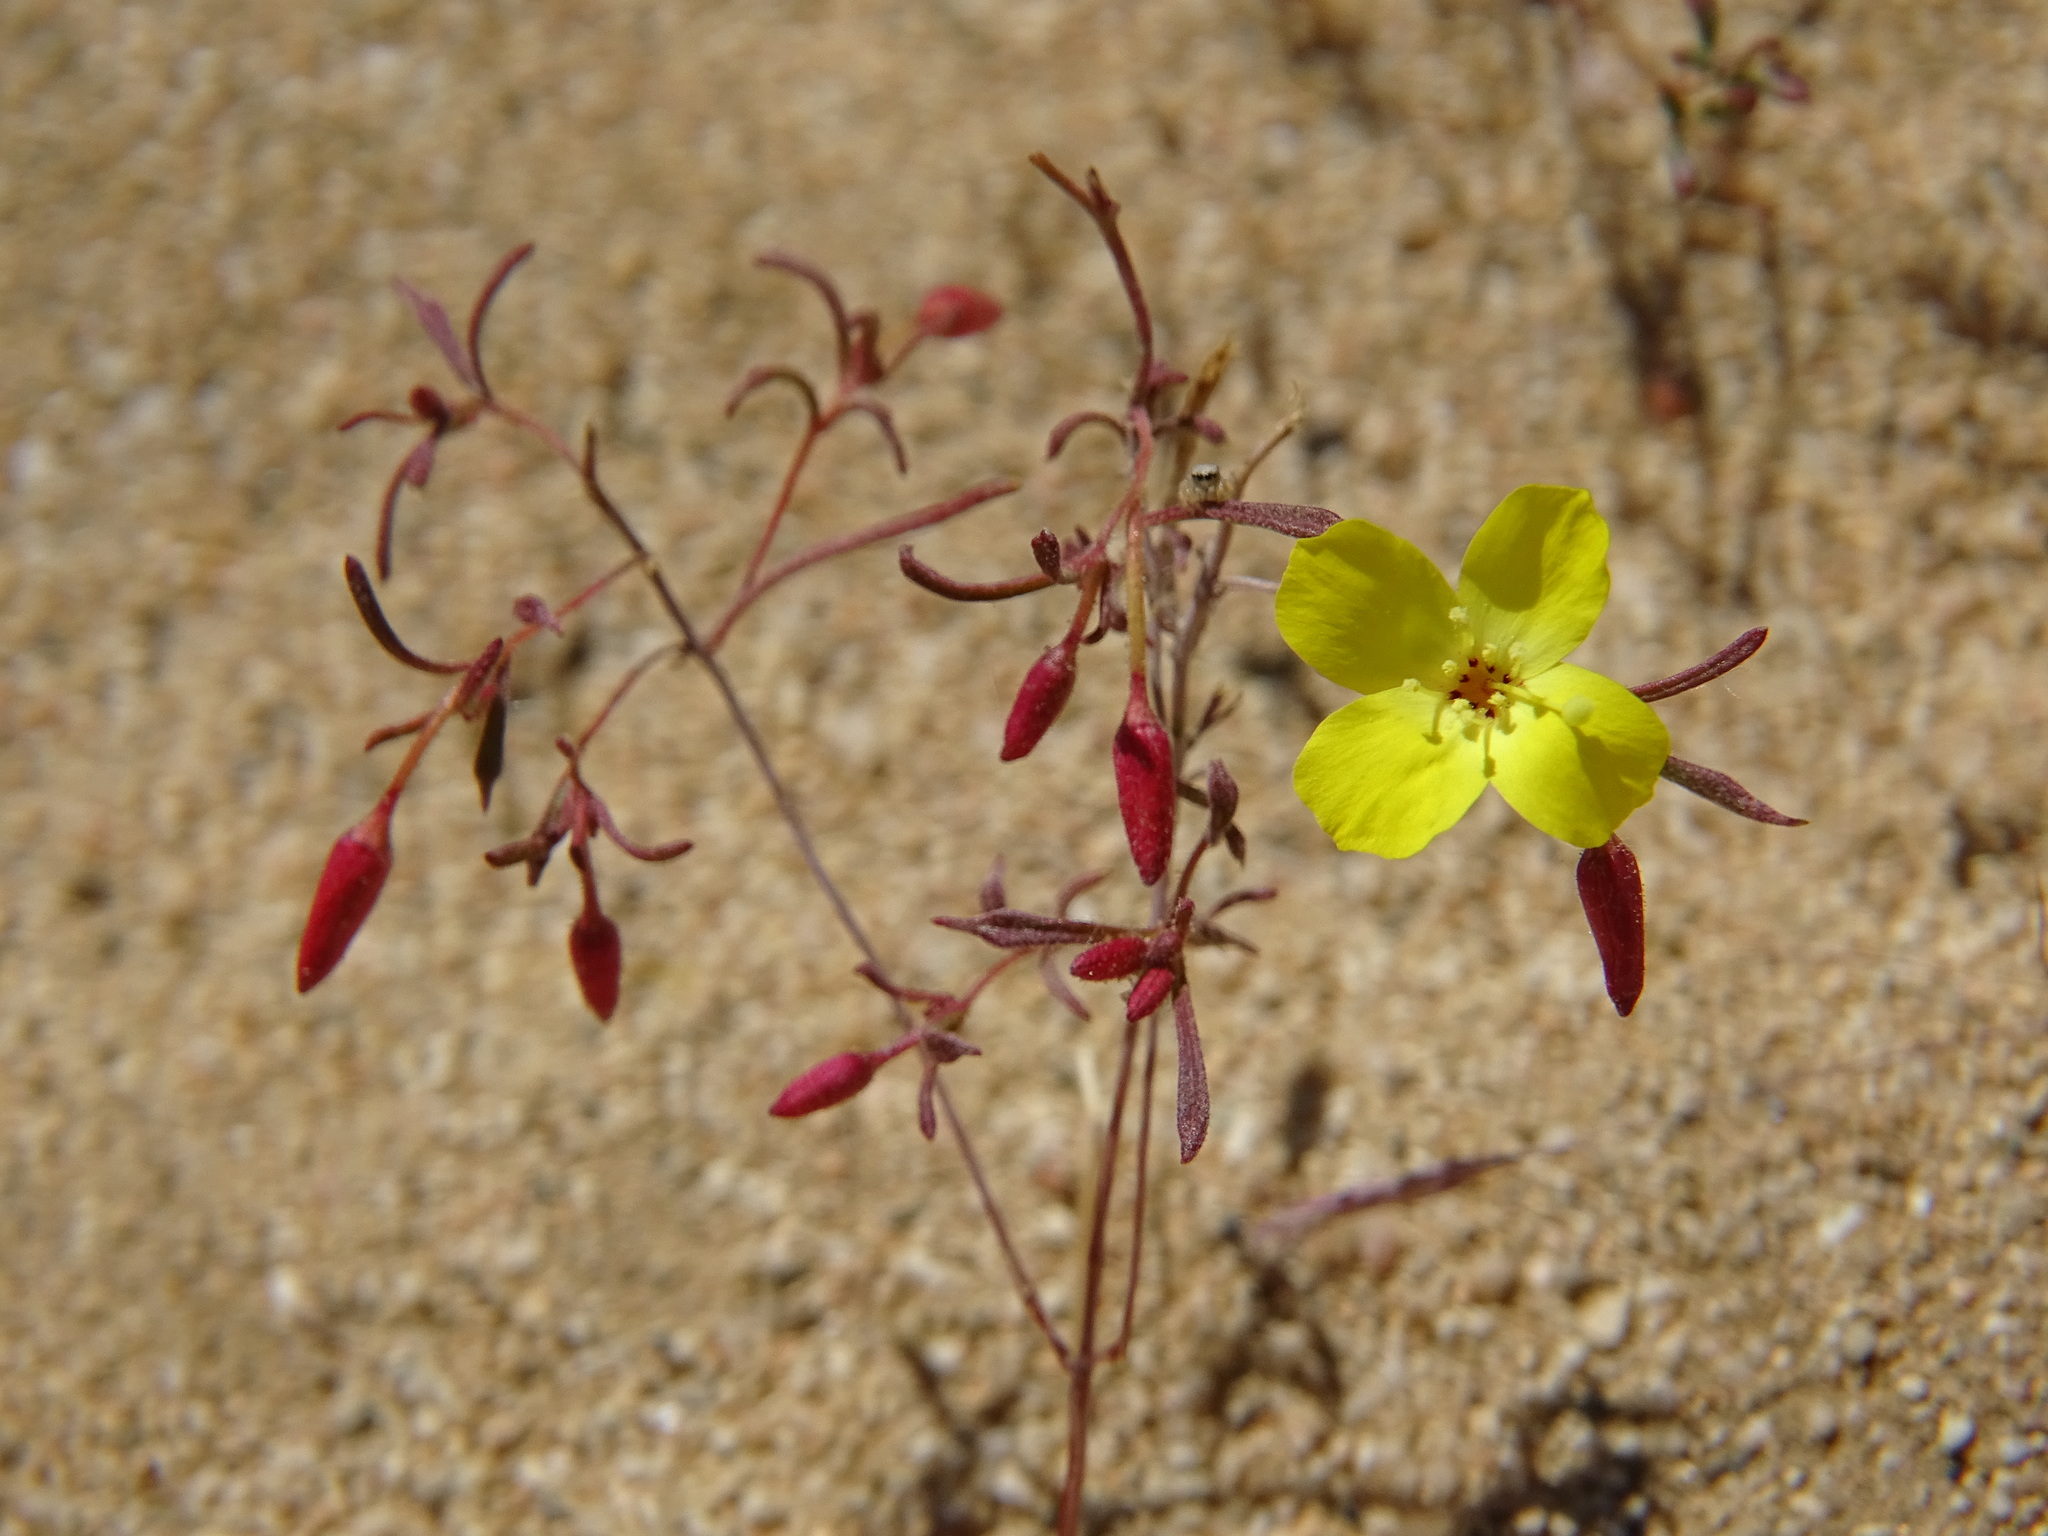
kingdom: Plantae
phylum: Tracheophyta
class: Magnoliopsida
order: Myrtales
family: Onagraceae
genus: Camissonia
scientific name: Camissonia campestris
